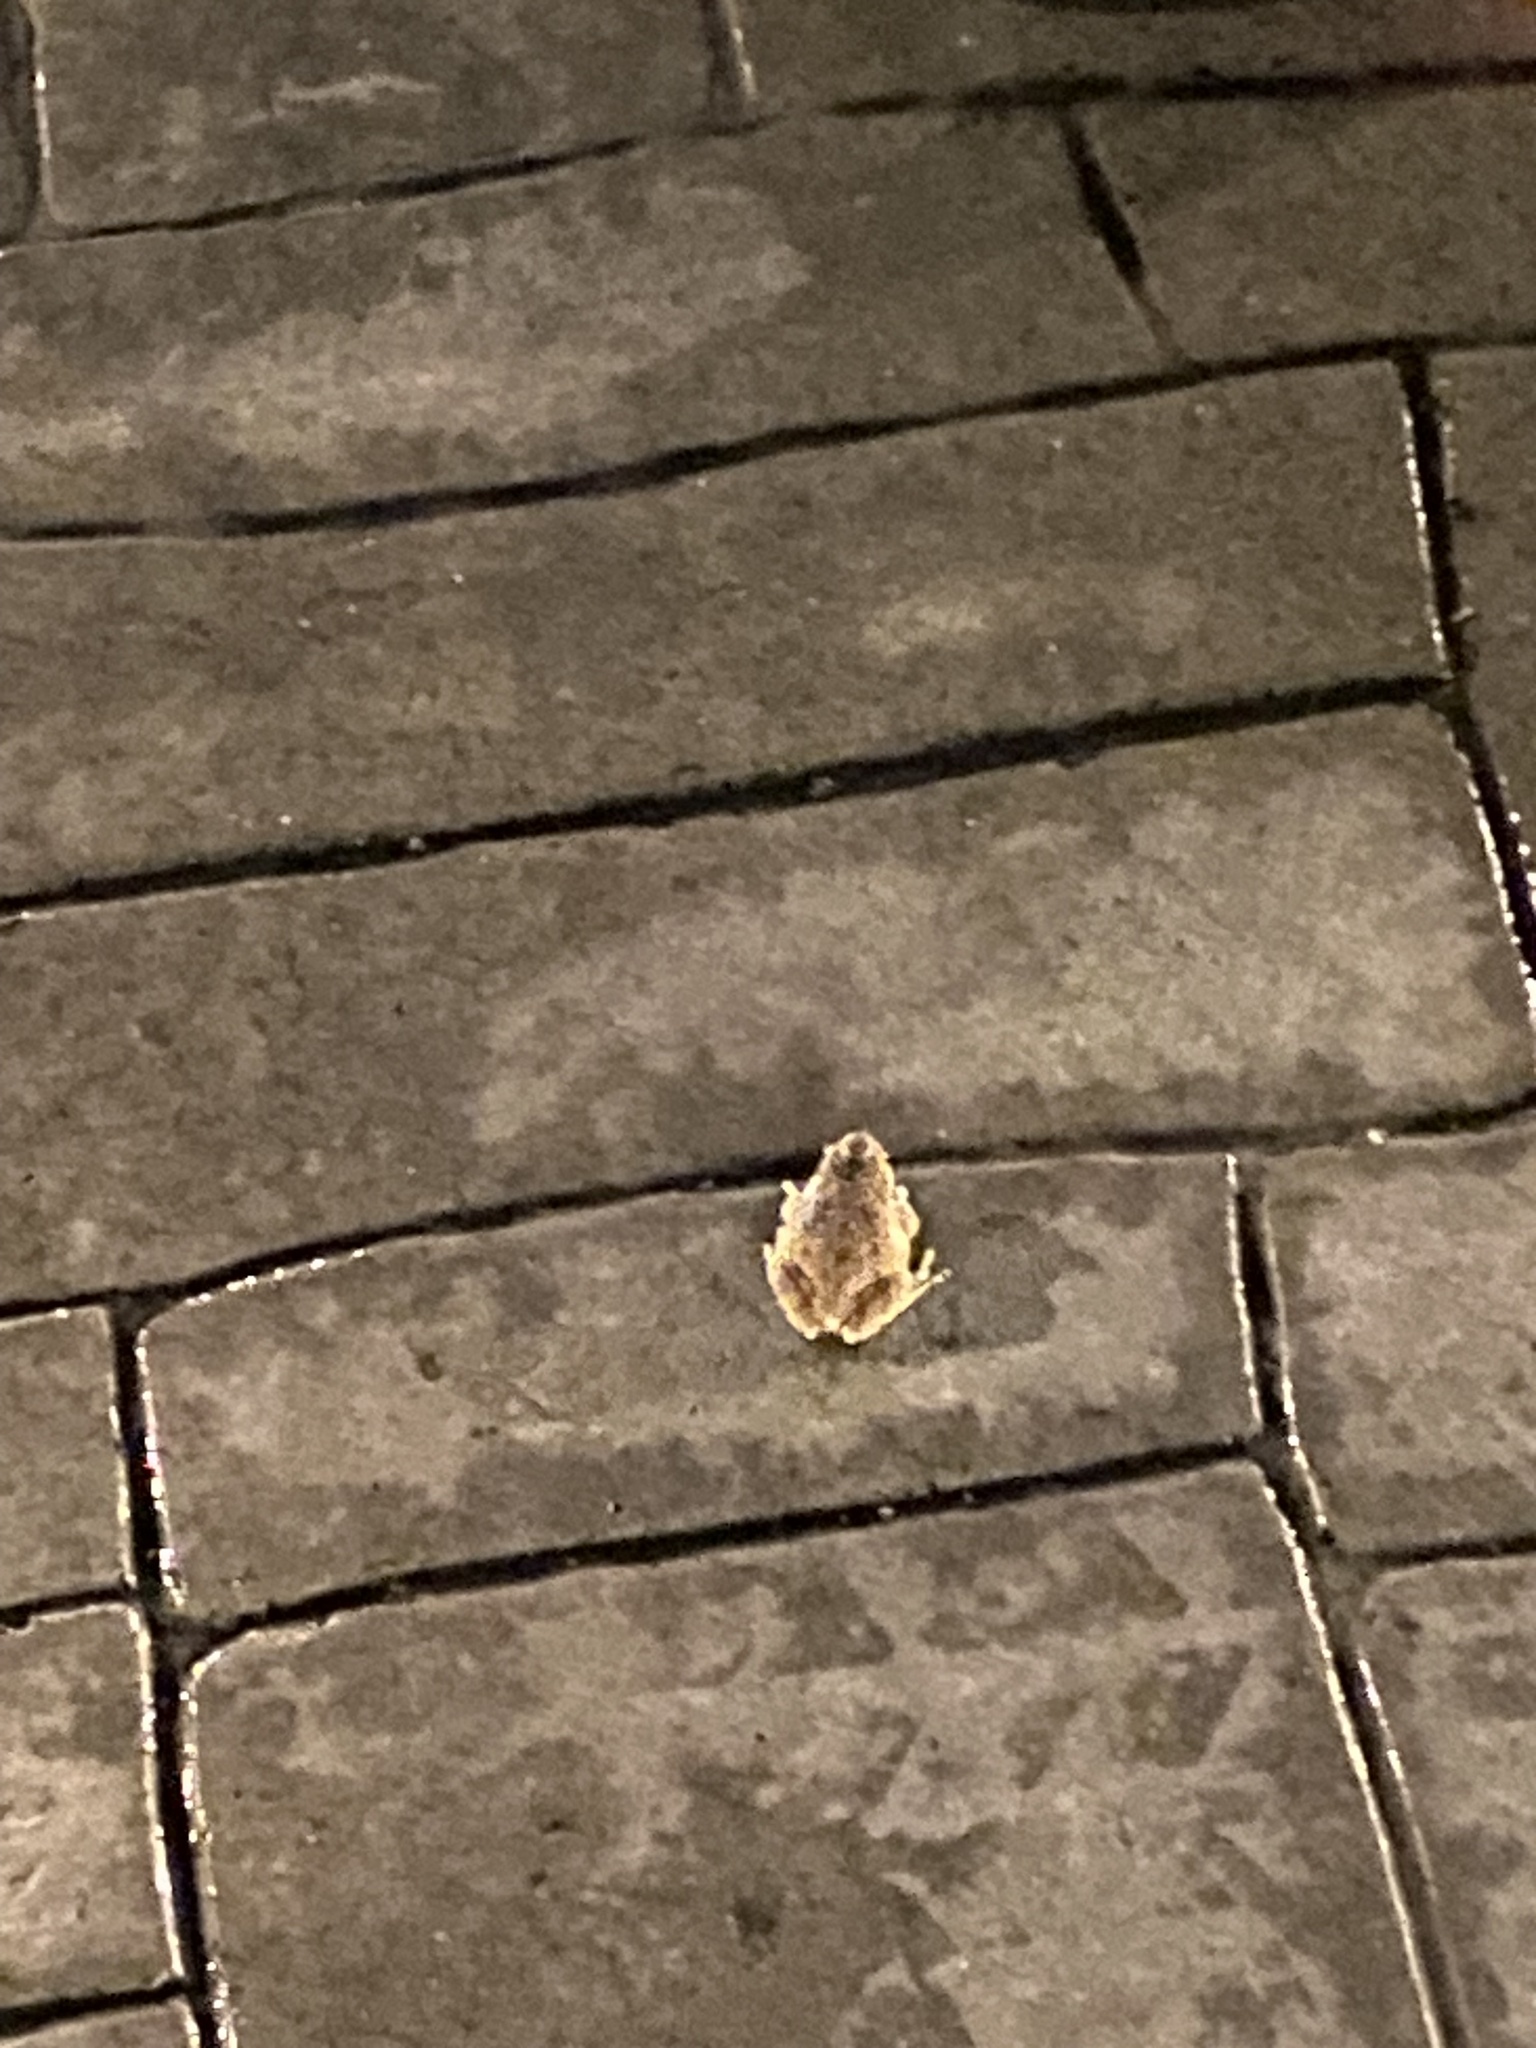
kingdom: Animalia
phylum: Chordata
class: Amphibia
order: Anura
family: Hylidae
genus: Pseudacris
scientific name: Pseudacris regilla
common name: Pacific chorus frog
